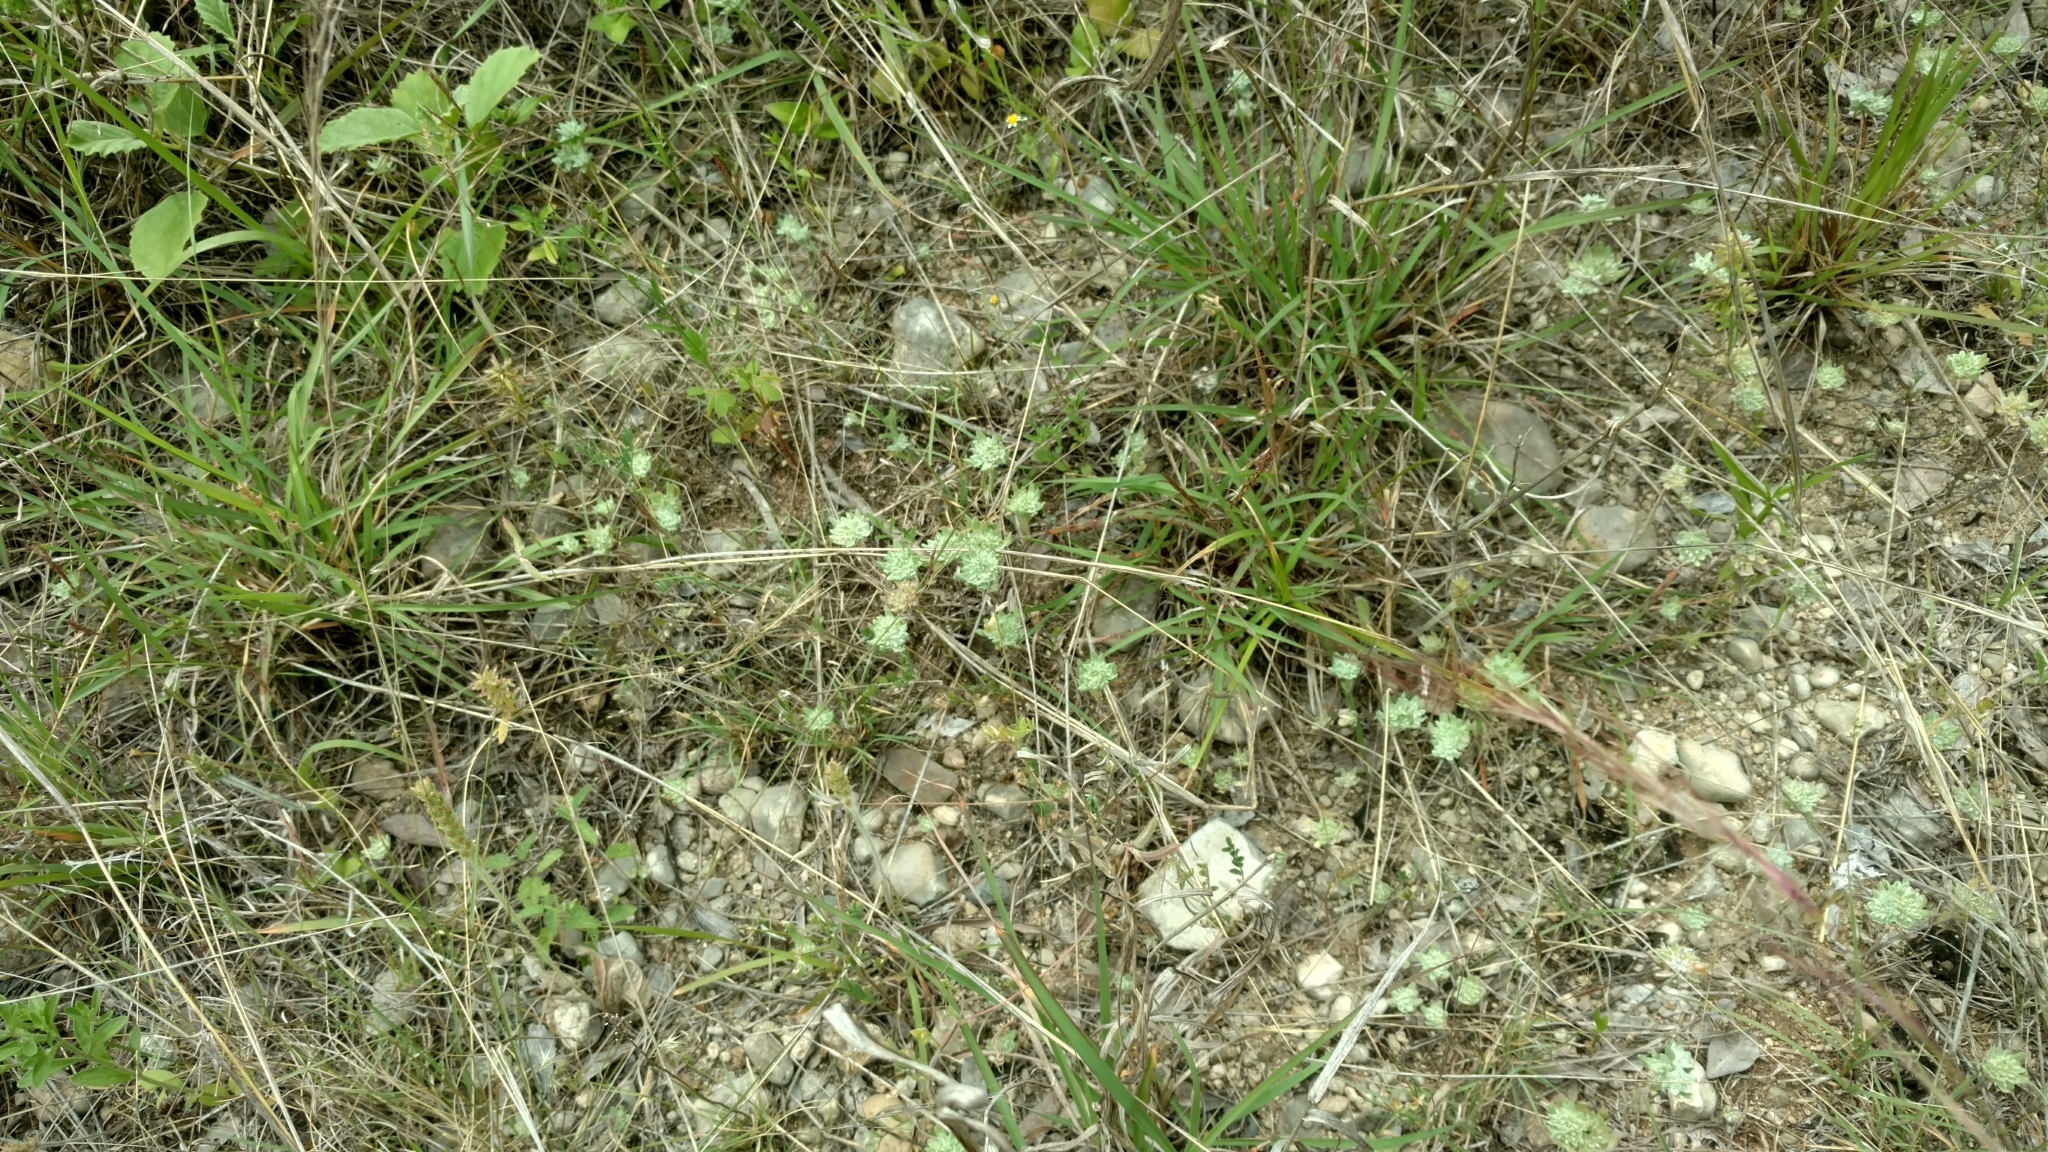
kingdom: Plantae
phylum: Tracheophyta
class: Magnoliopsida
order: Asterales
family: Asteraceae
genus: Diaperia
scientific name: Diaperia prolifera
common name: Big-head rabbit-tobacco
